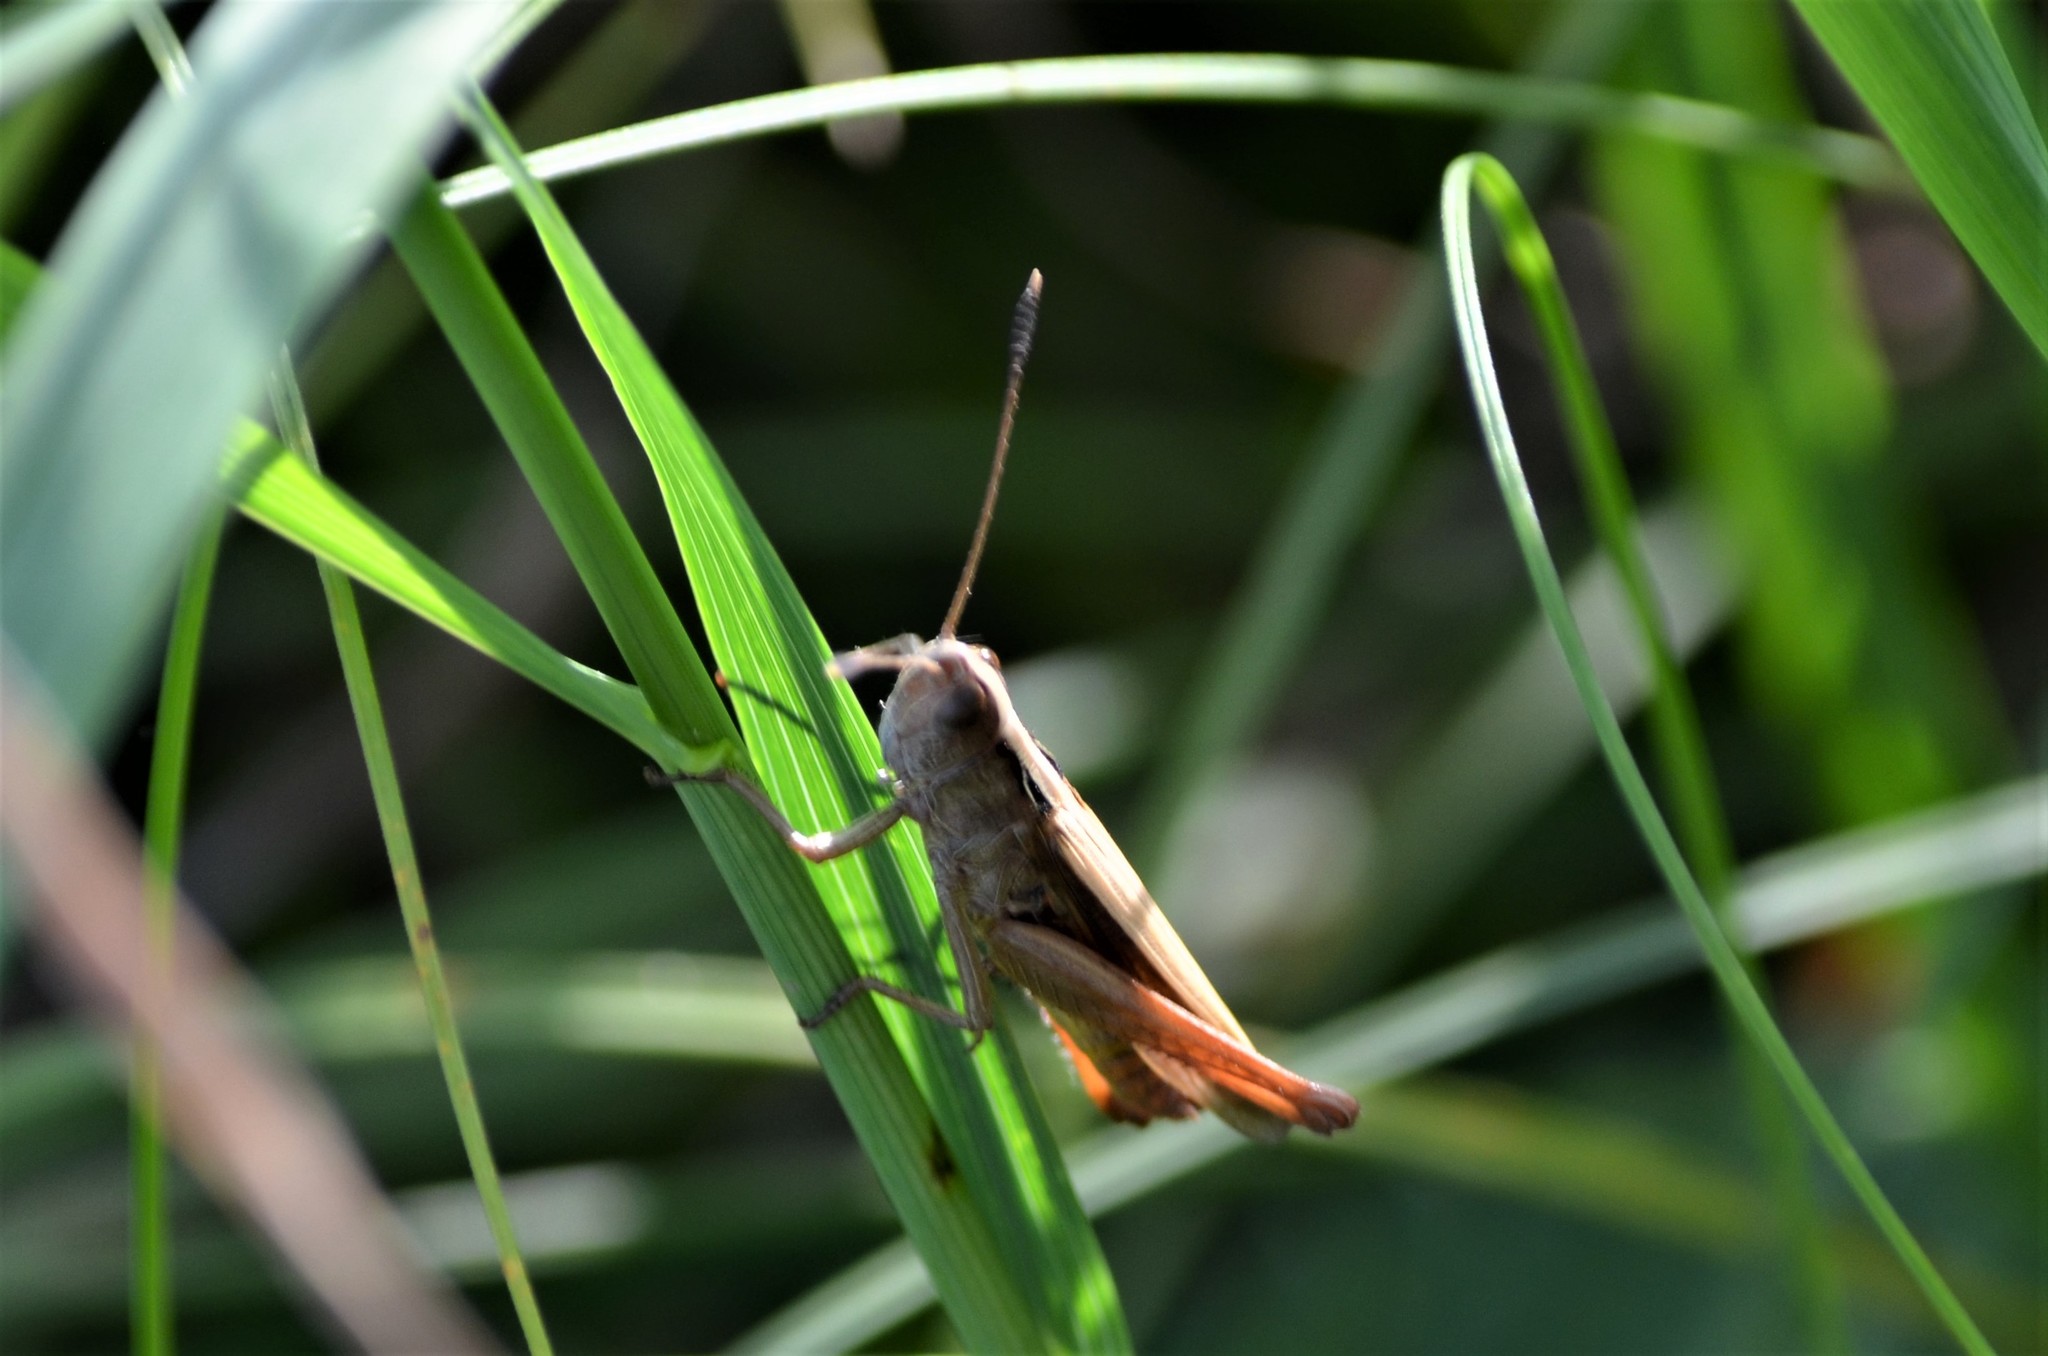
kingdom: Animalia
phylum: Arthropoda
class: Insecta
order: Orthoptera
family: Acrididae
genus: Gomphocerippus
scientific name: Gomphocerippus rufus
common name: Rufous grasshopper
